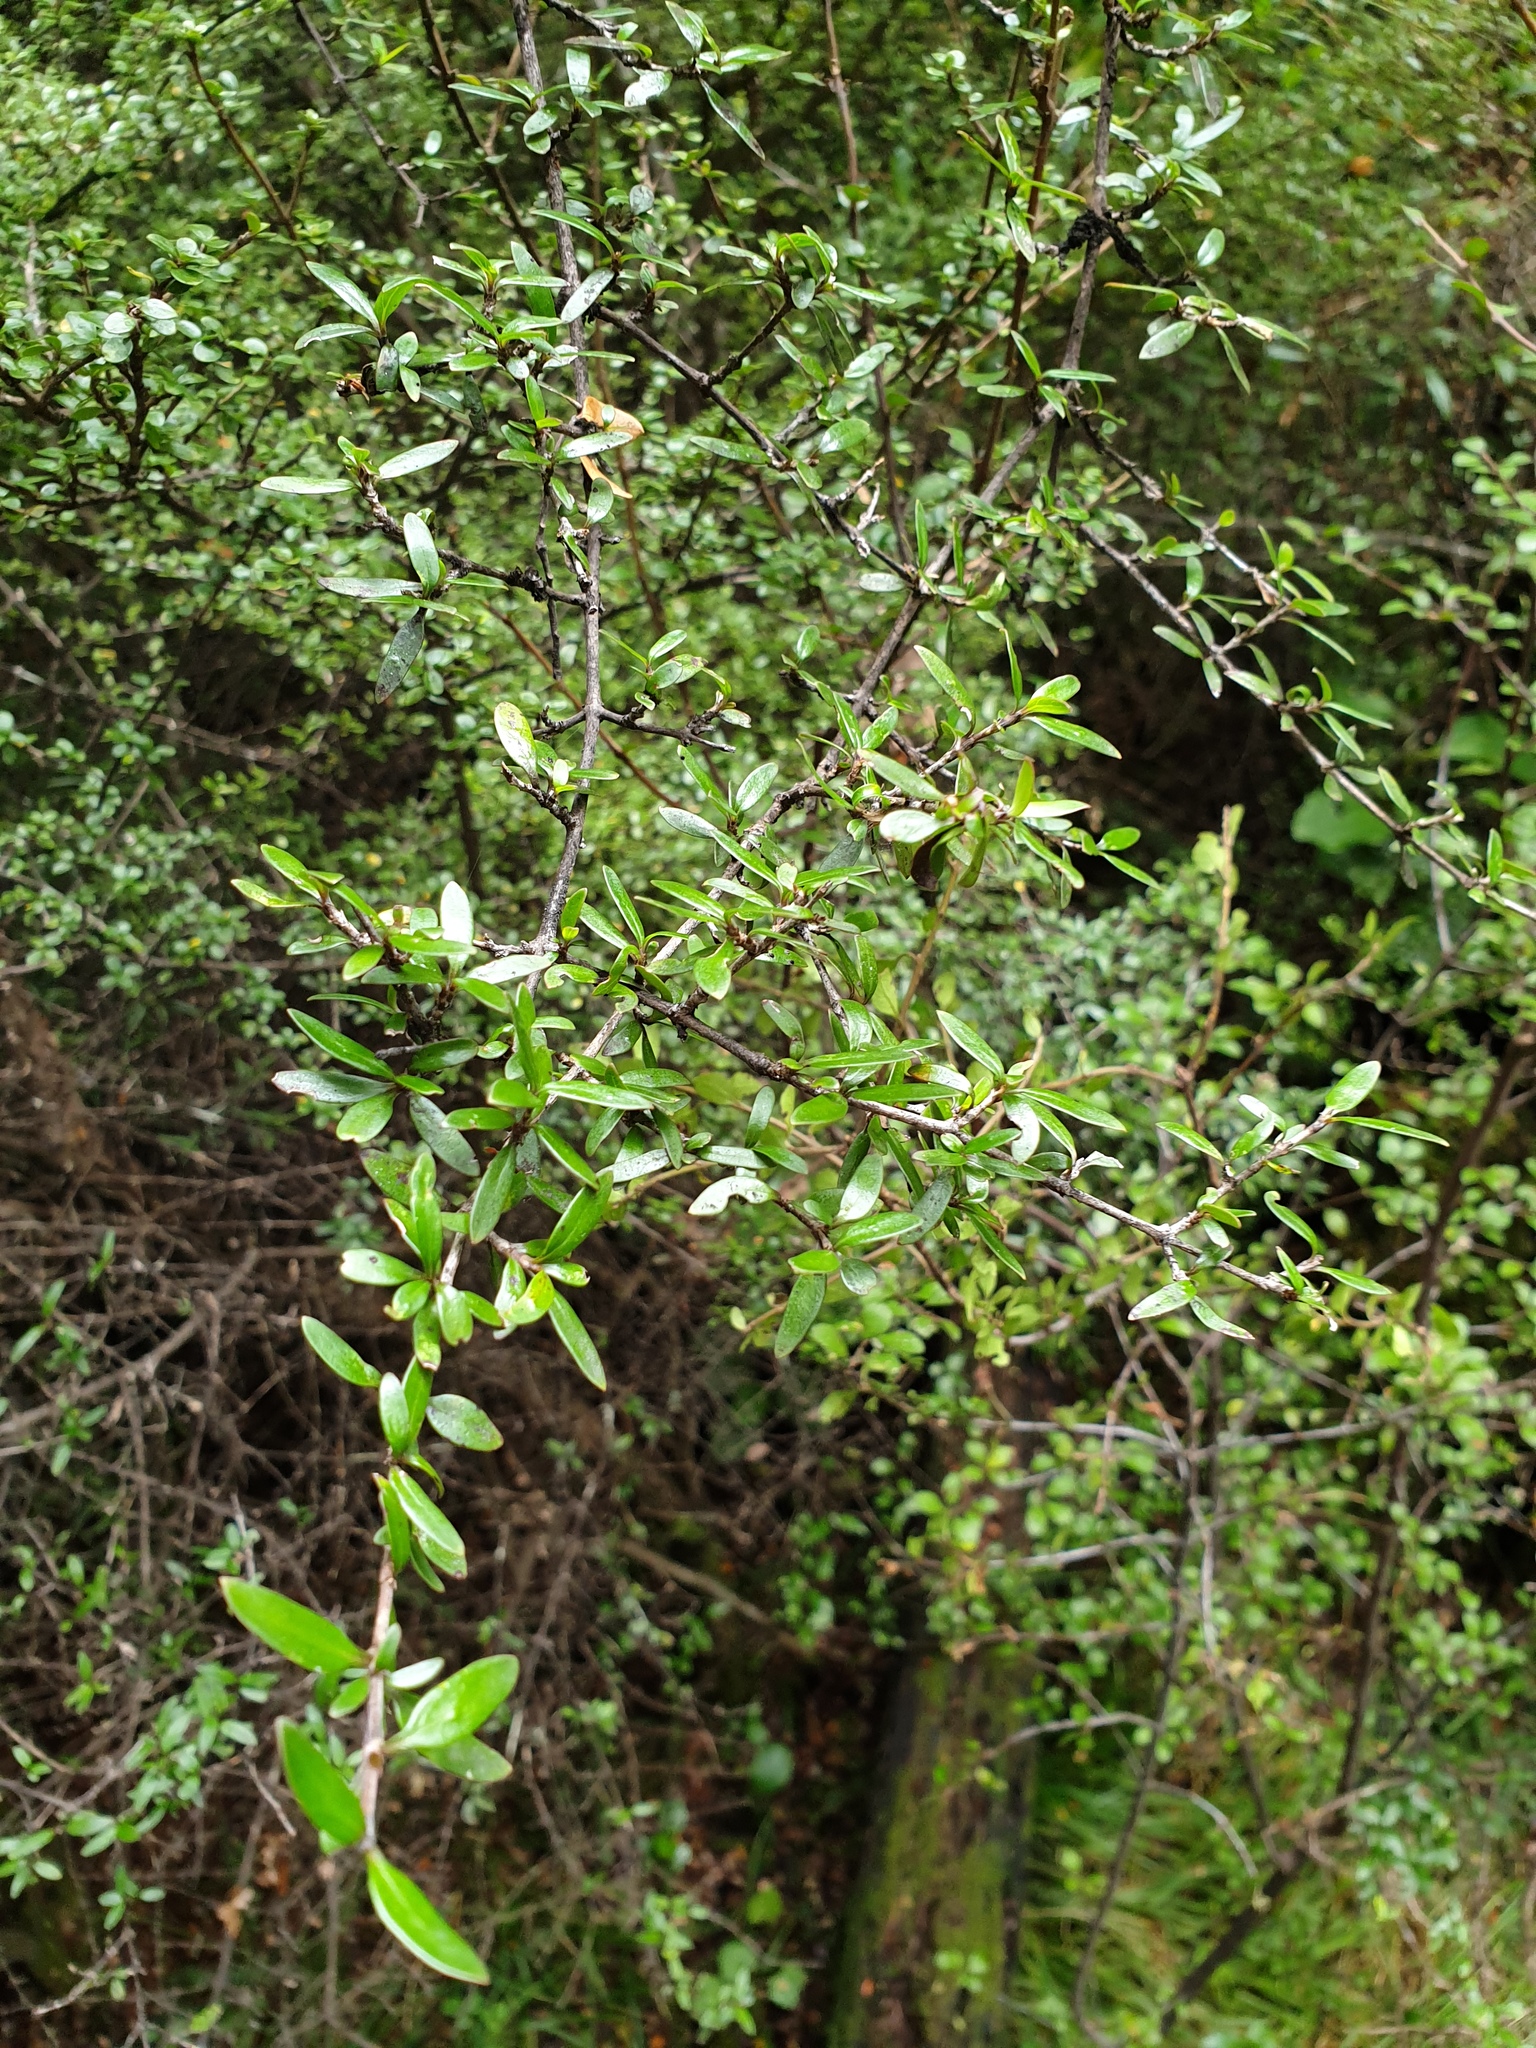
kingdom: Plantae
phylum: Tracheophyta
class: Magnoliopsida
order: Gentianales
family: Rubiaceae
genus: Coprosma
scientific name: Coprosma cunninghamii
